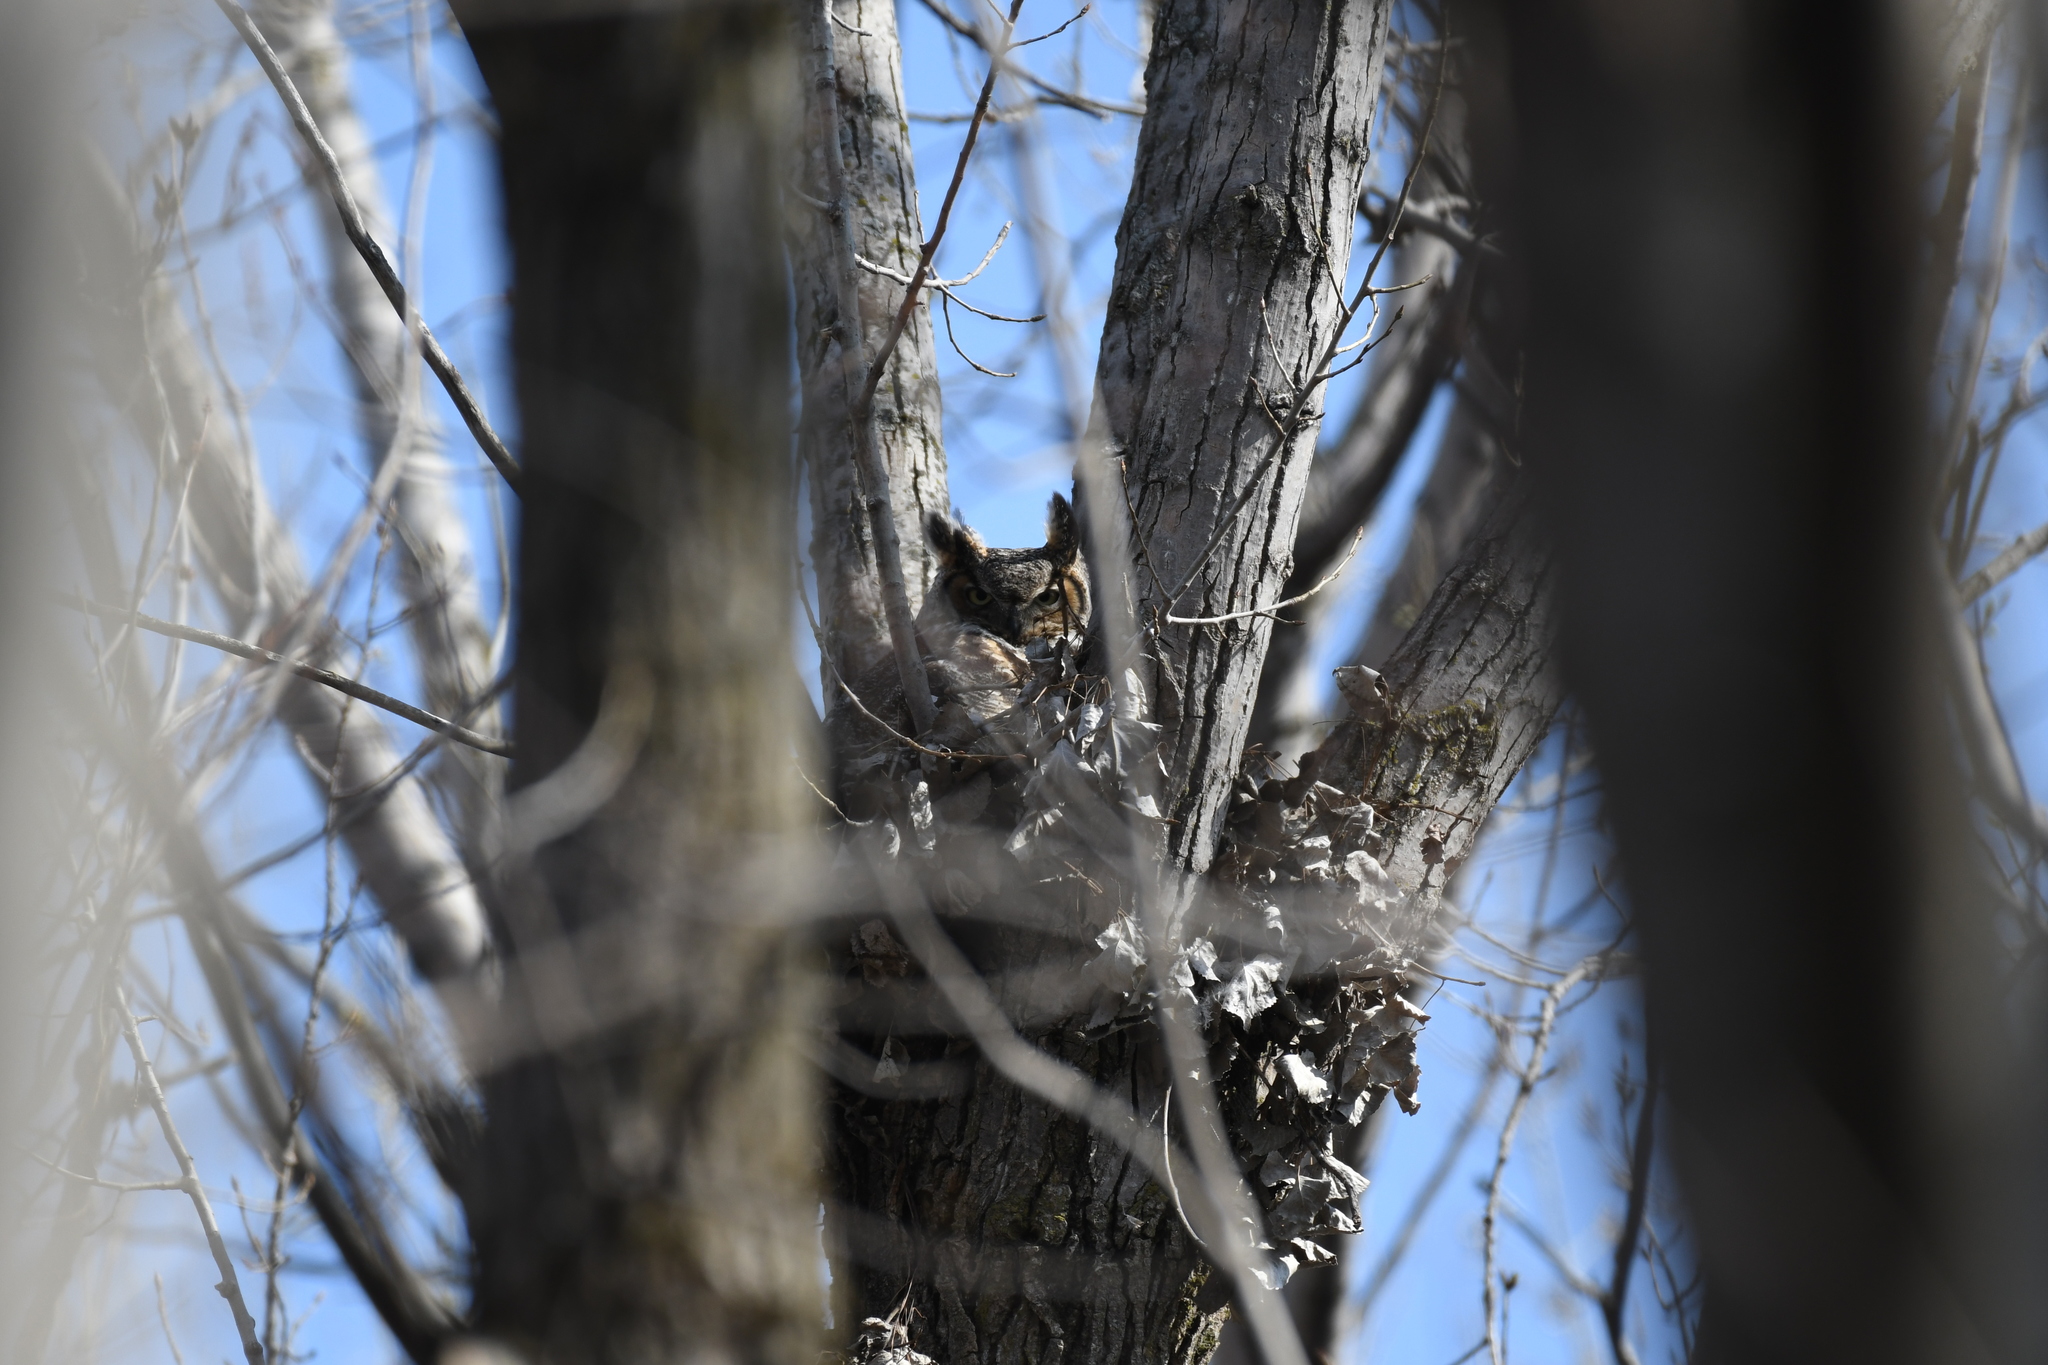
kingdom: Animalia
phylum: Chordata
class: Aves
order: Strigiformes
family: Strigidae
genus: Bubo
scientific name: Bubo virginianus
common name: Great horned owl
